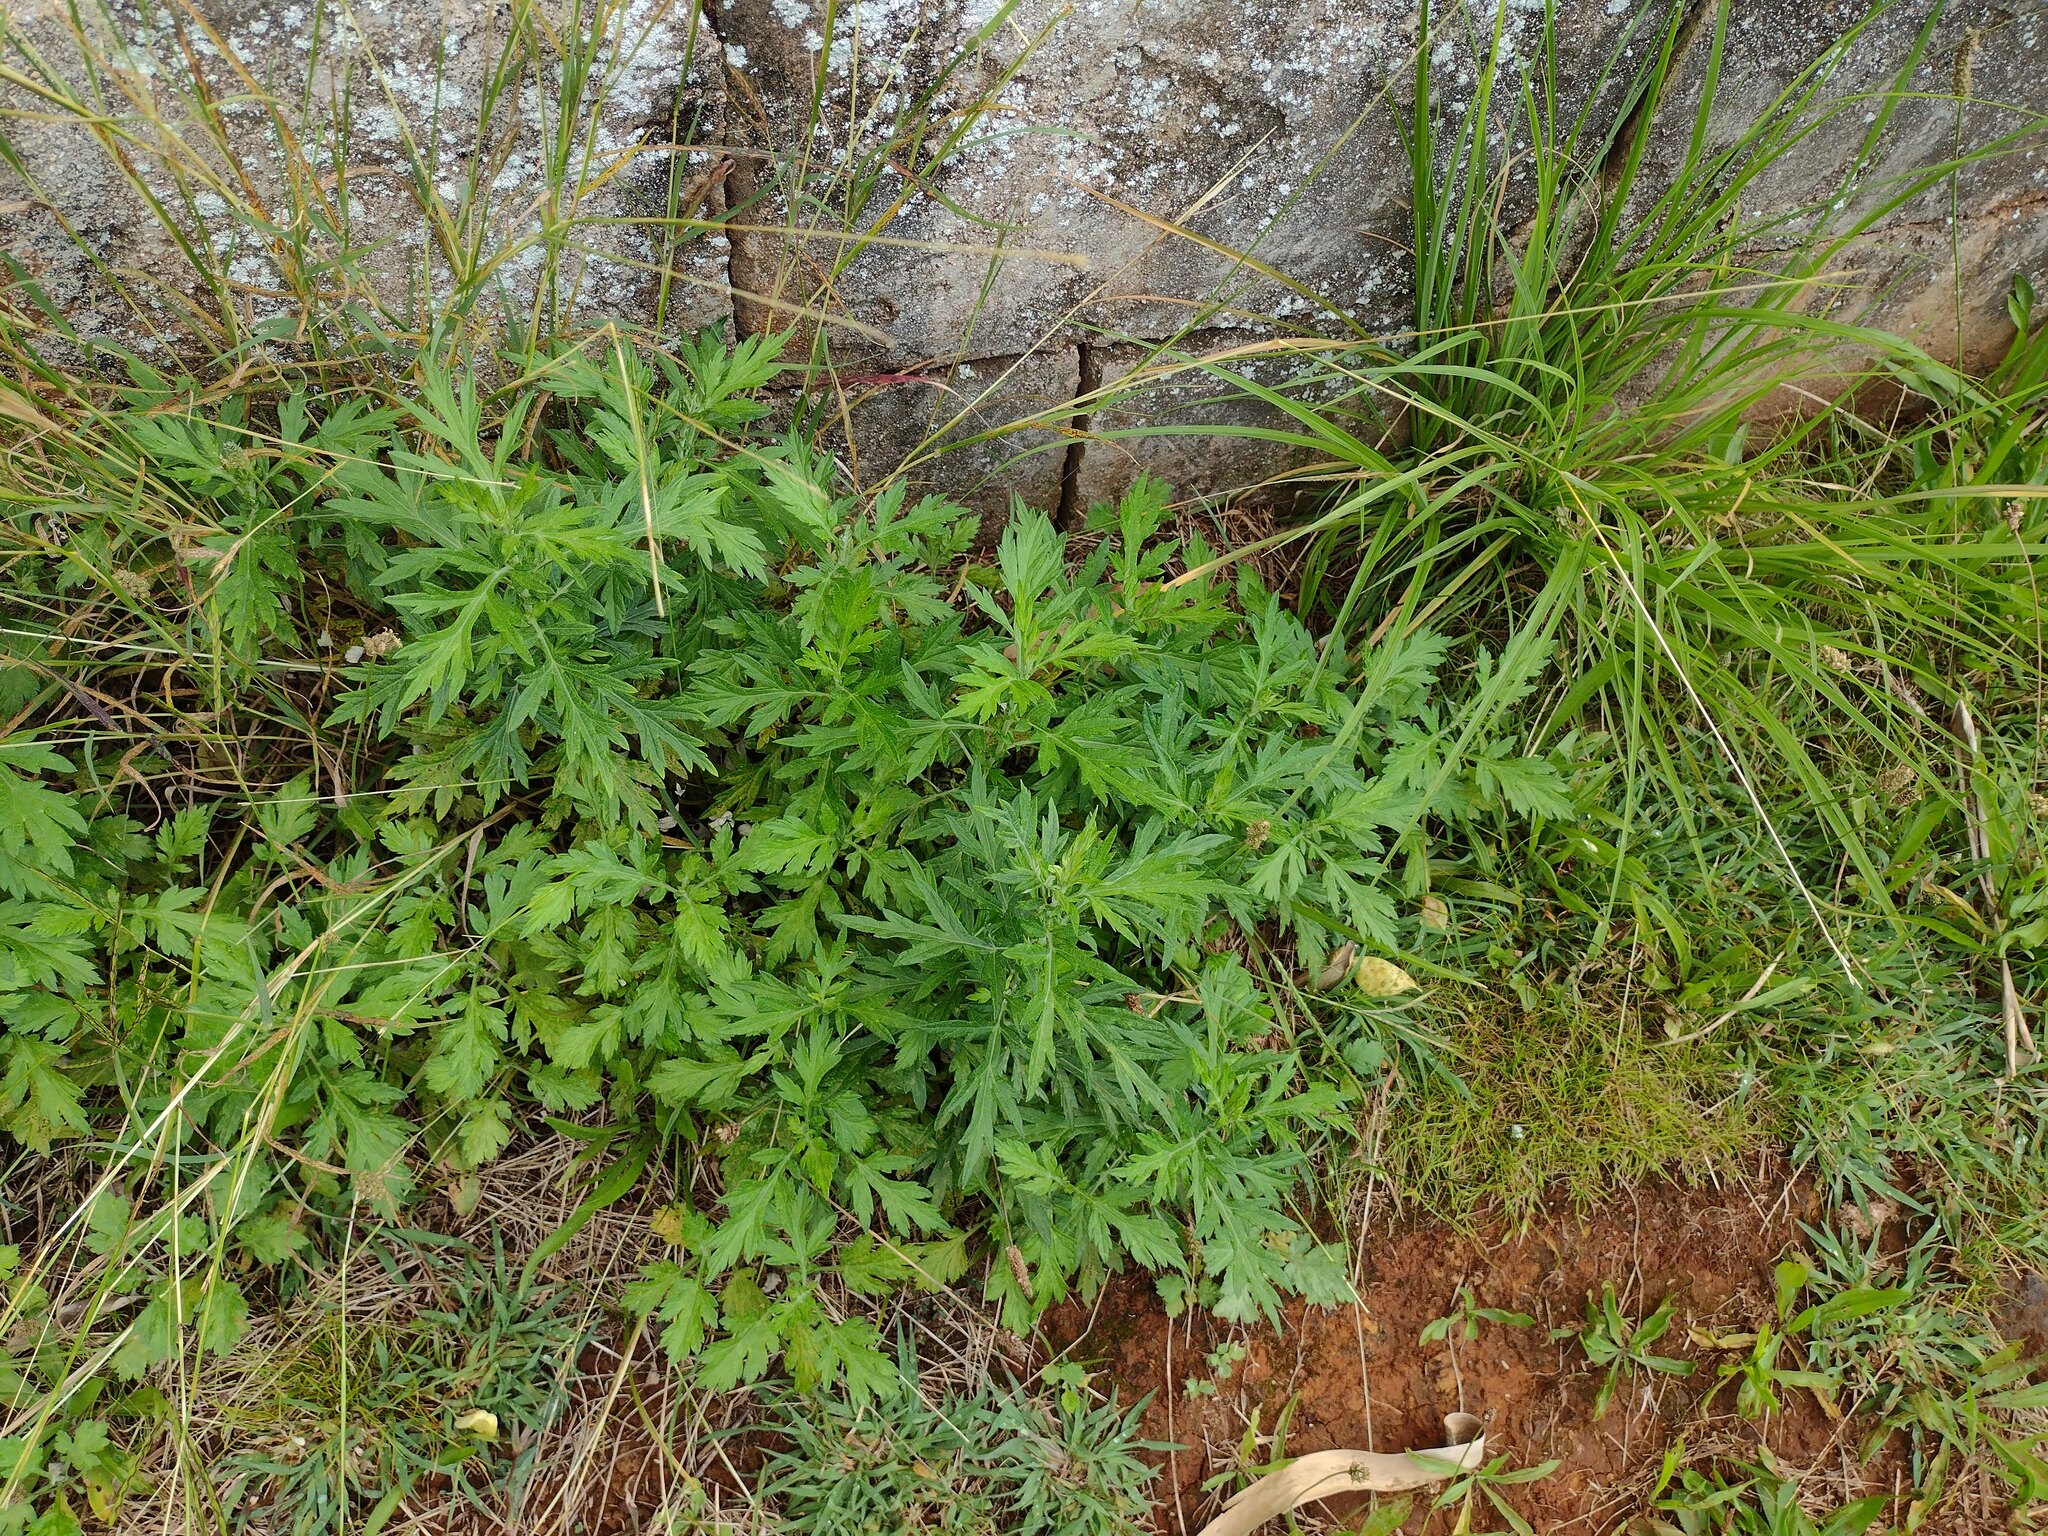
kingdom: Plantae
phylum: Tracheophyta
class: Magnoliopsida
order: Asterales
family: Asteraceae
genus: Artemisia
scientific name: Artemisia vulgaris
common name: Mugwort
